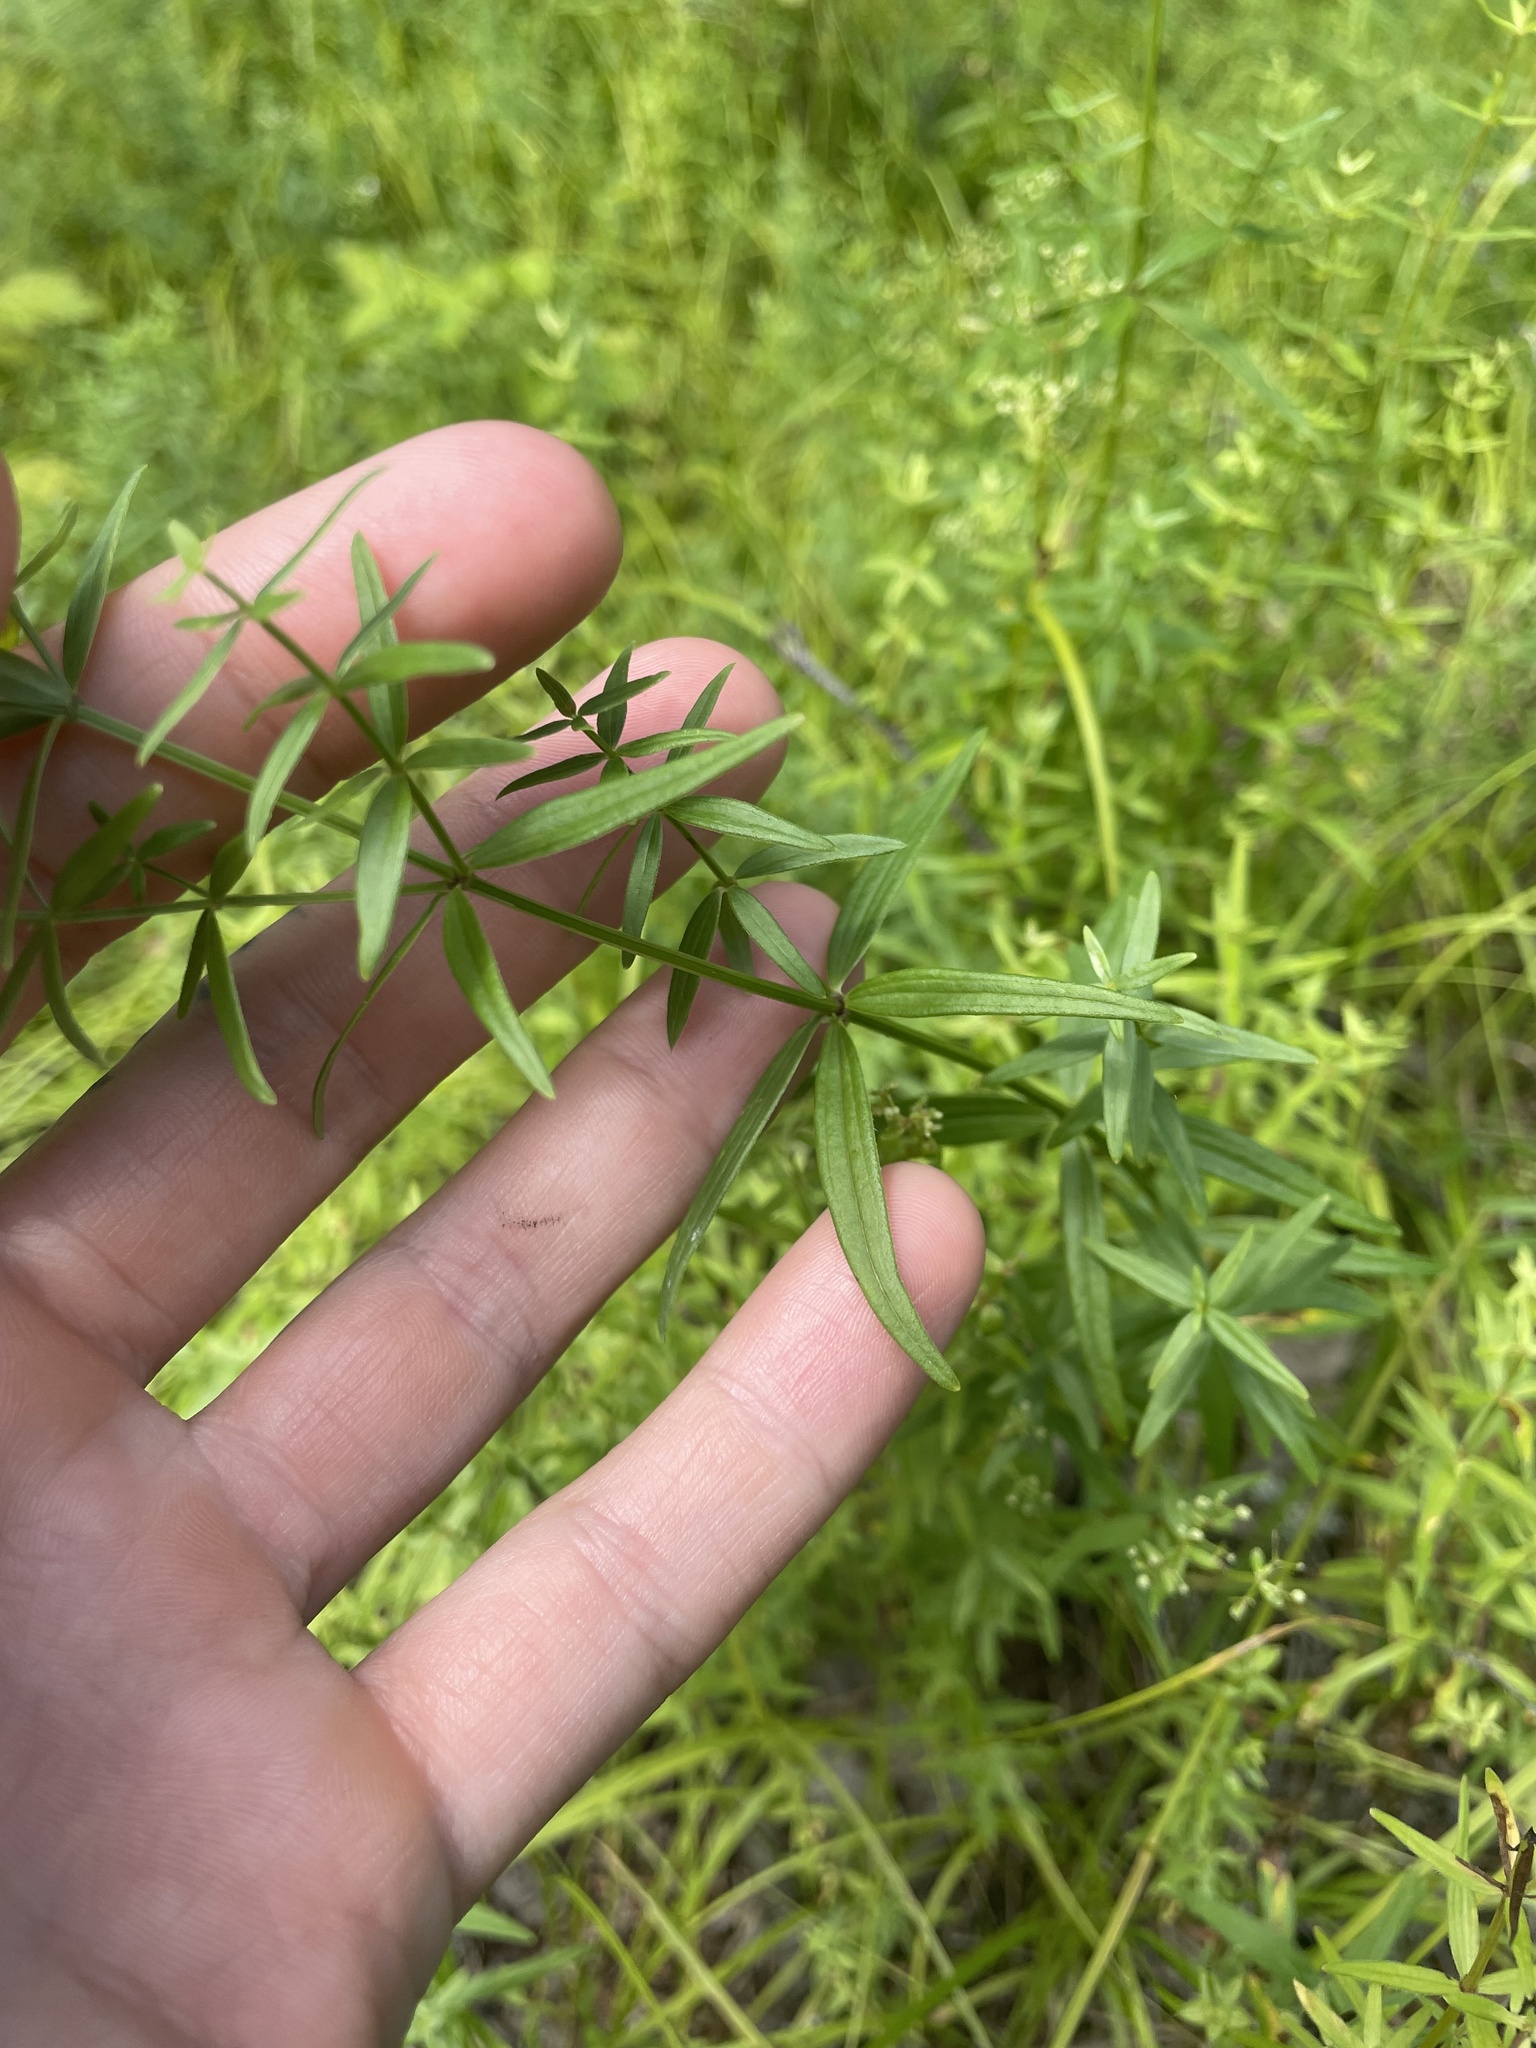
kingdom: Plantae
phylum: Tracheophyta
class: Magnoliopsida
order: Gentianales
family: Rubiaceae
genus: Galium
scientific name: Galium boreale
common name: Northern bedstraw
